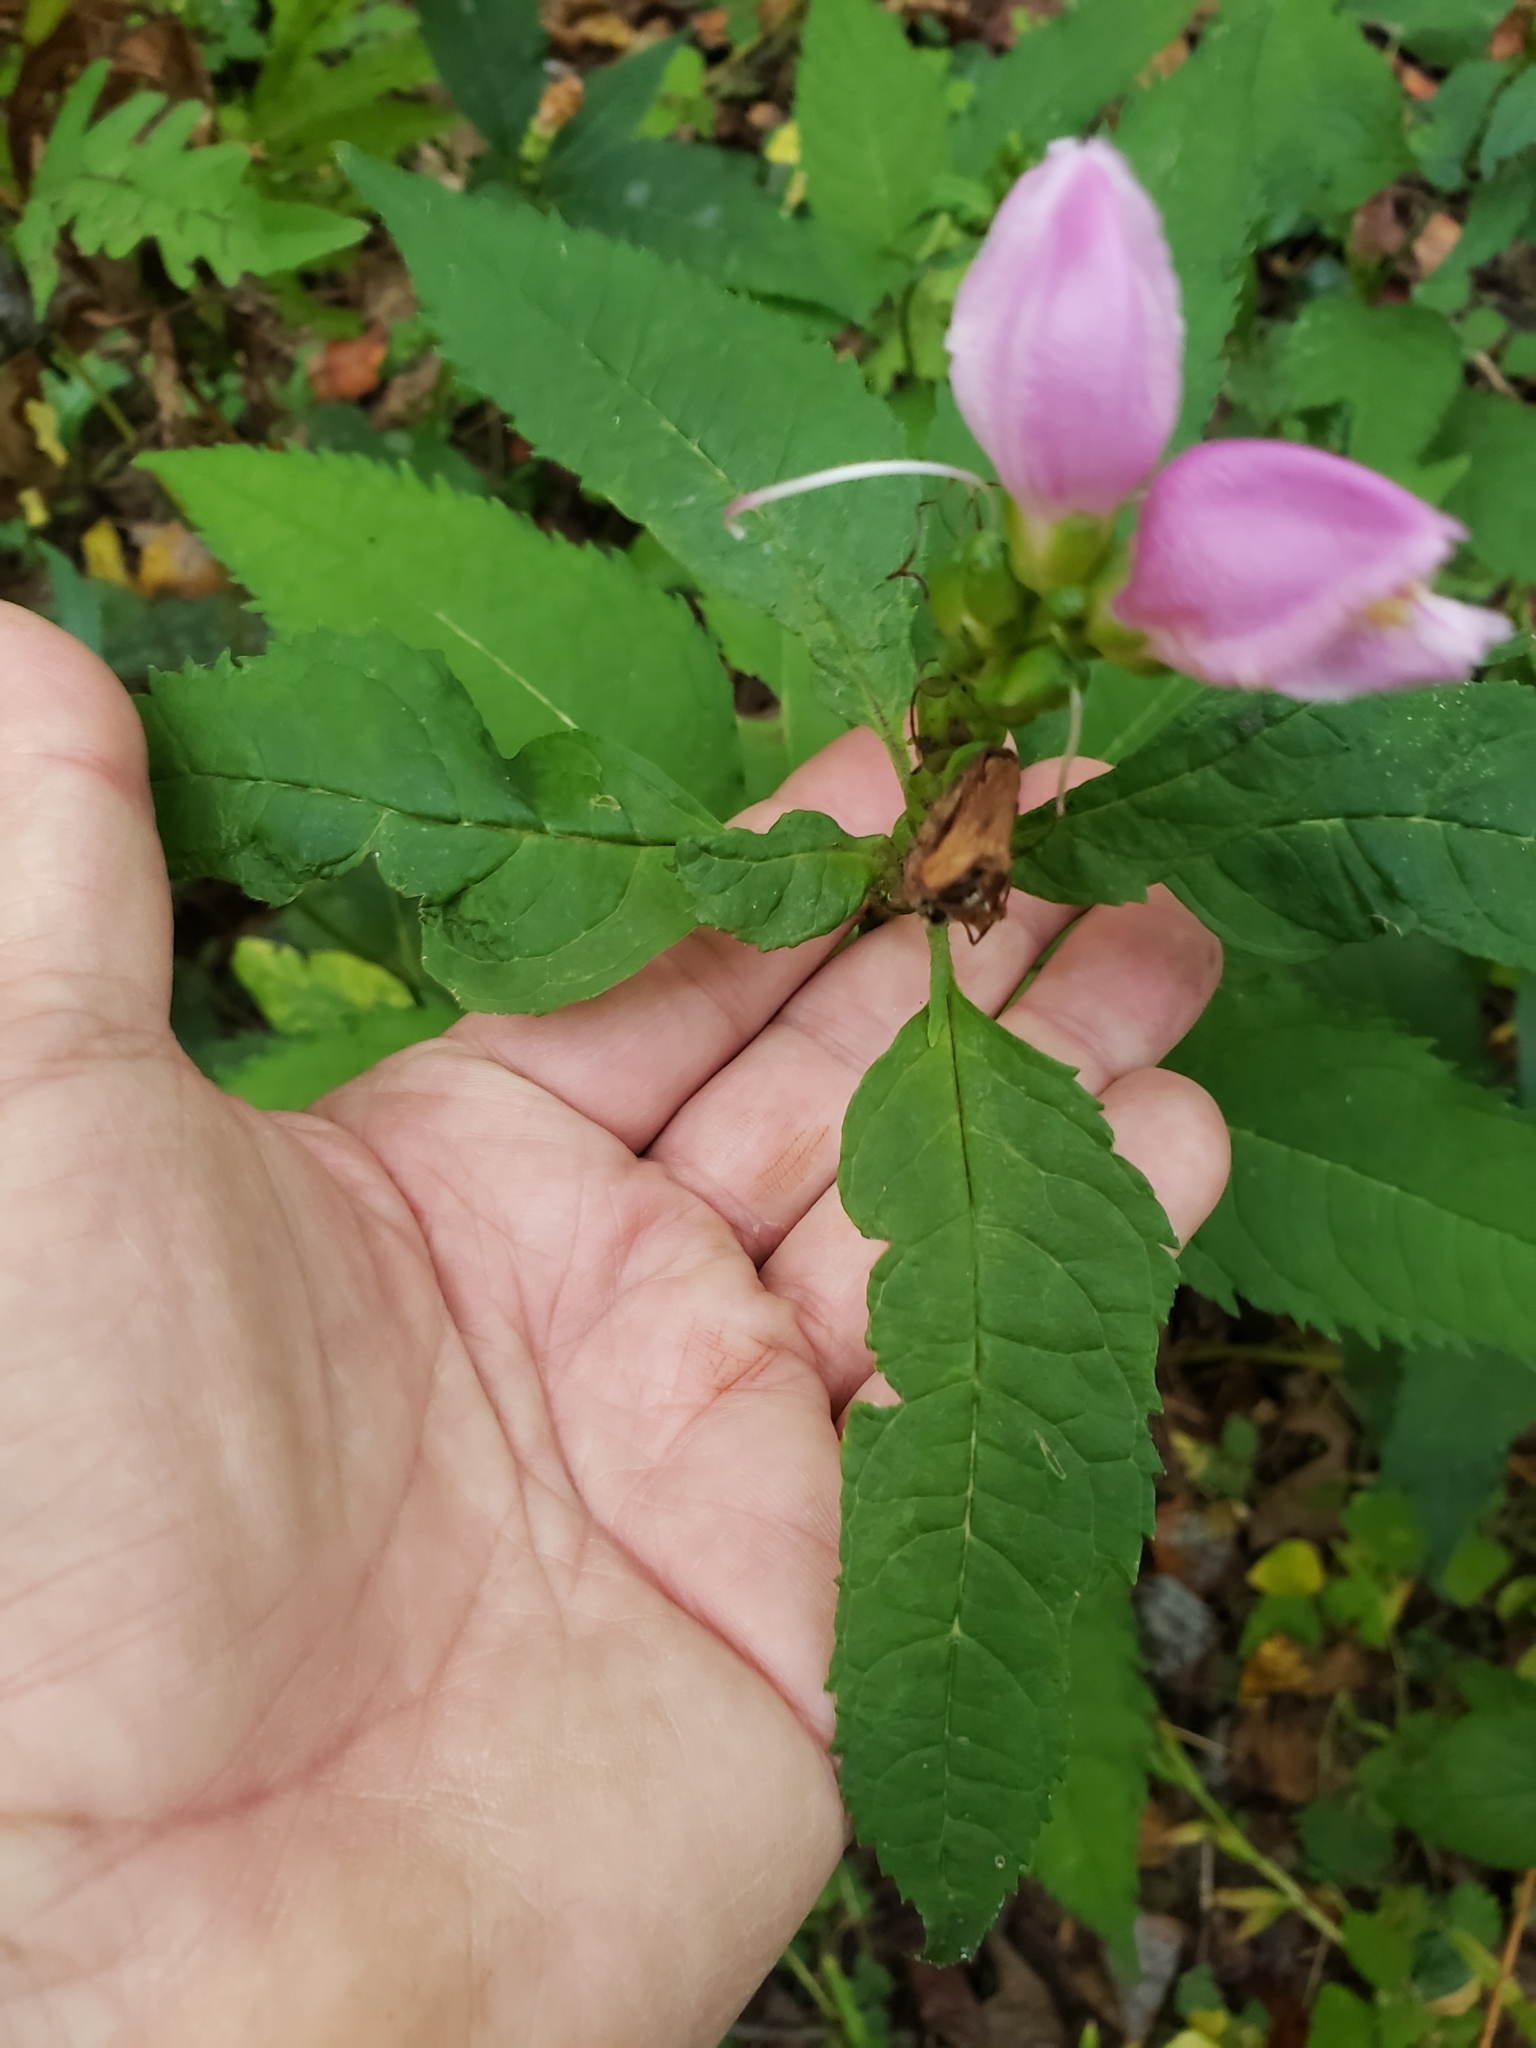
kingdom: Plantae
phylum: Tracheophyta
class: Magnoliopsida
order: Lamiales
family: Plantaginaceae
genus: Chelone
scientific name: Chelone lyonii
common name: Pink turtlehead
